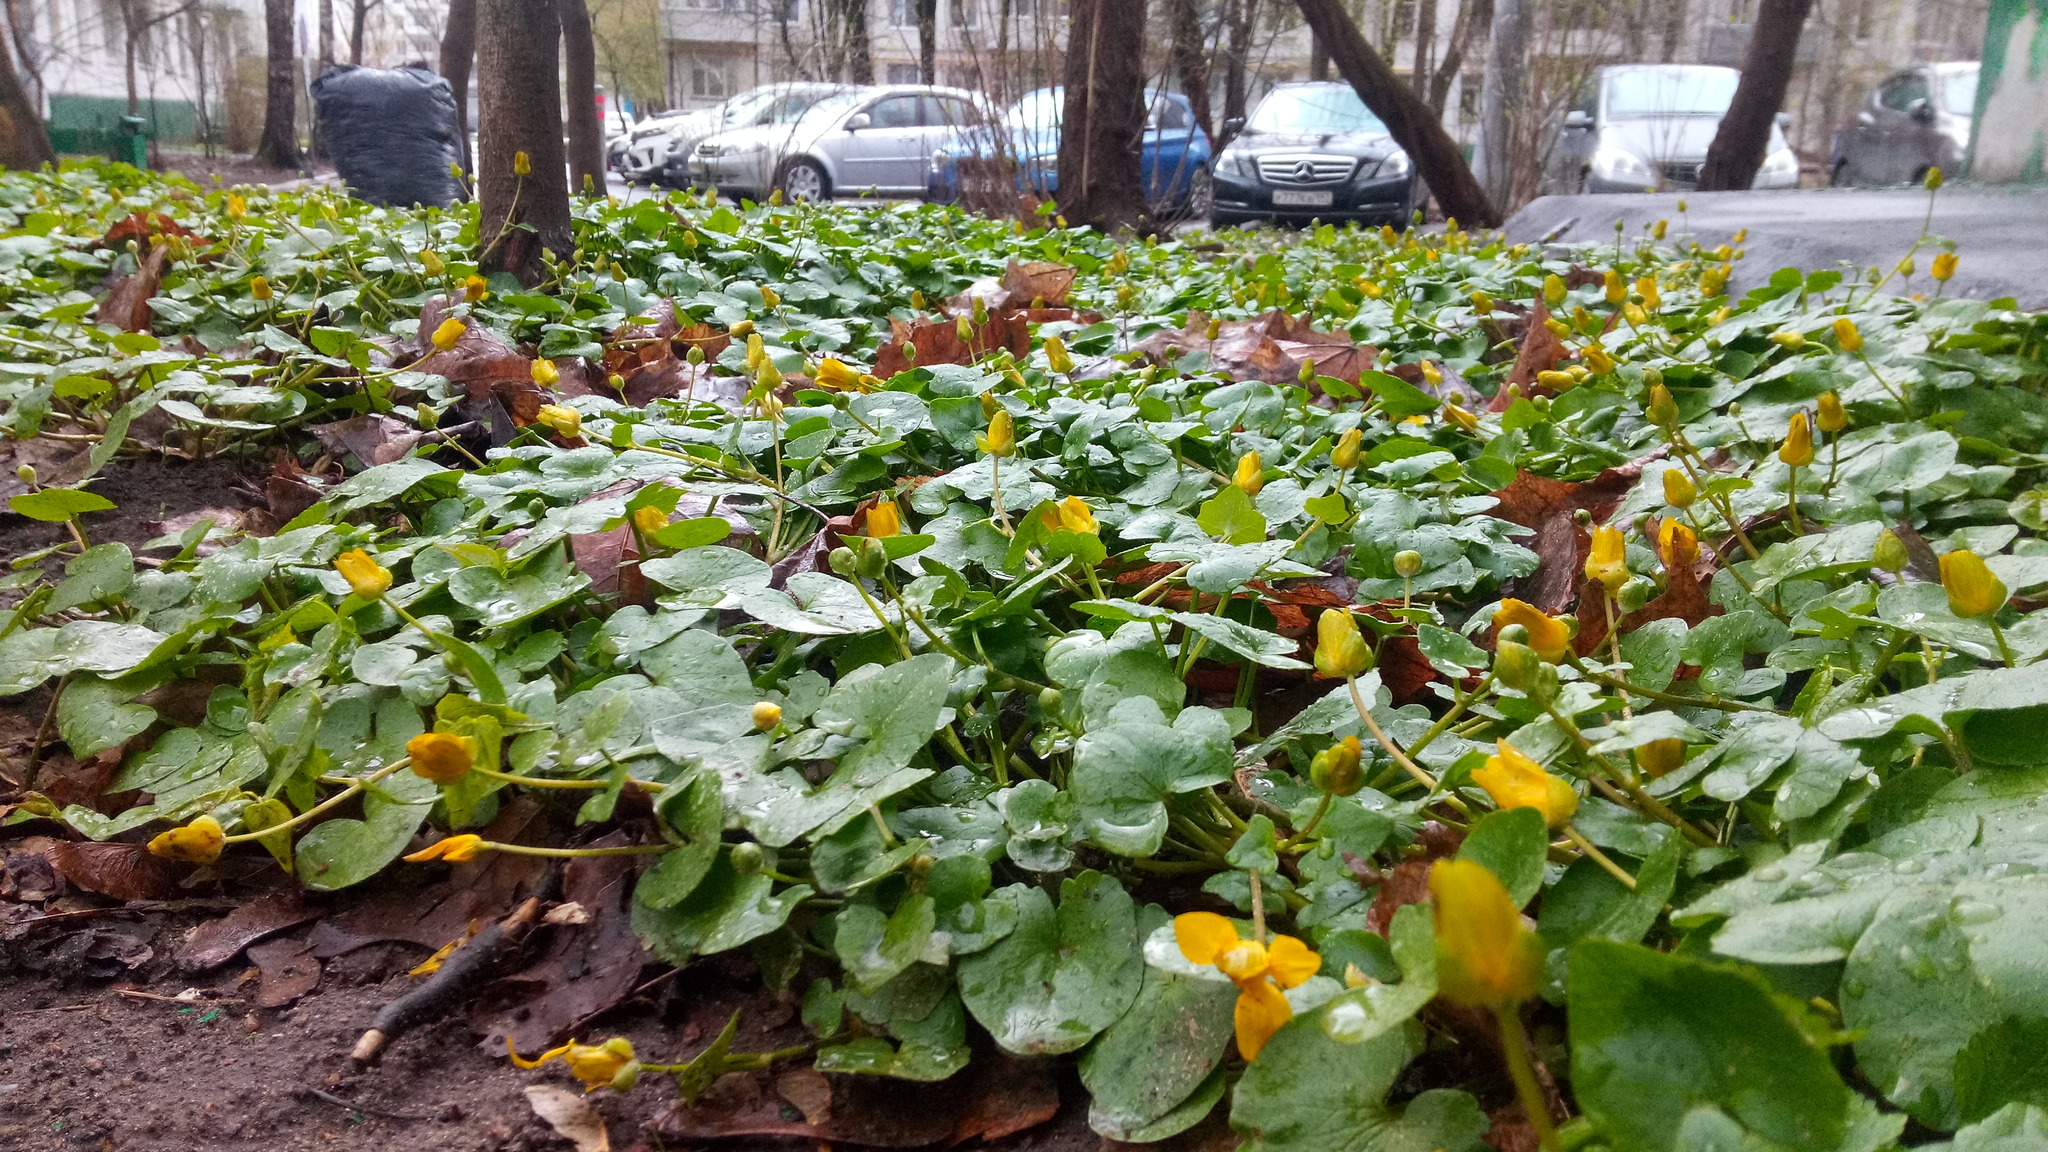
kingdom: Plantae
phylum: Tracheophyta
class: Magnoliopsida
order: Ranunculales
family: Ranunculaceae
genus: Ficaria
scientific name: Ficaria verna
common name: Lesser celandine
